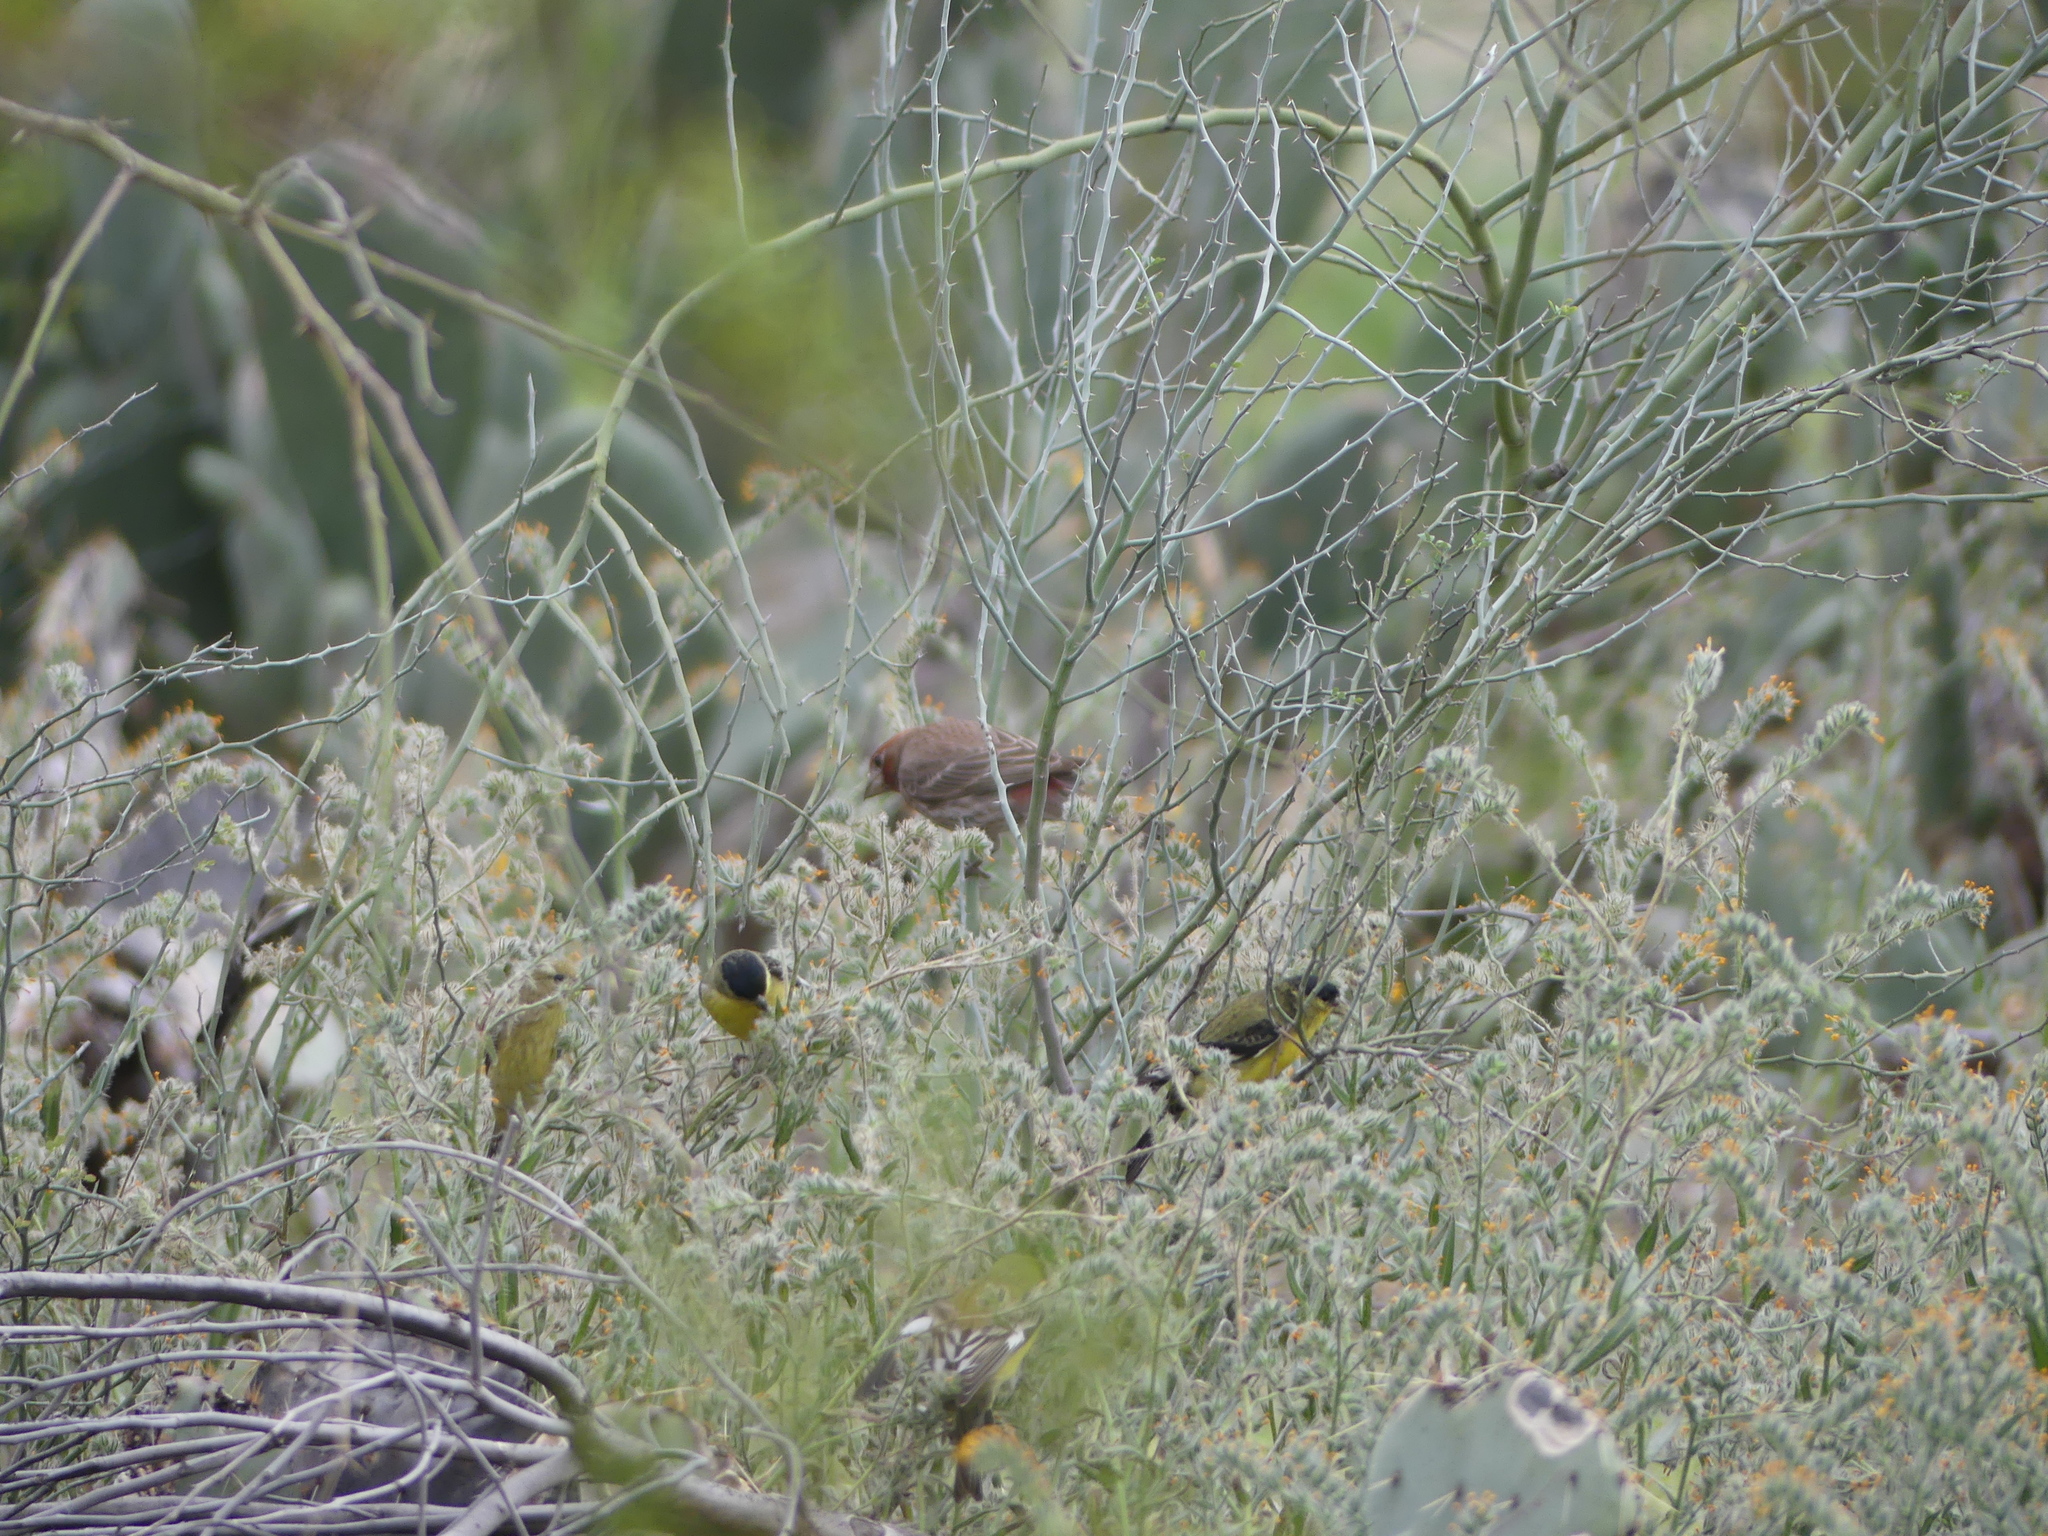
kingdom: Animalia
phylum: Chordata
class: Aves
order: Passeriformes
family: Fringillidae
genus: Spinus
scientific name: Spinus psaltria
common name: Lesser goldfinch
